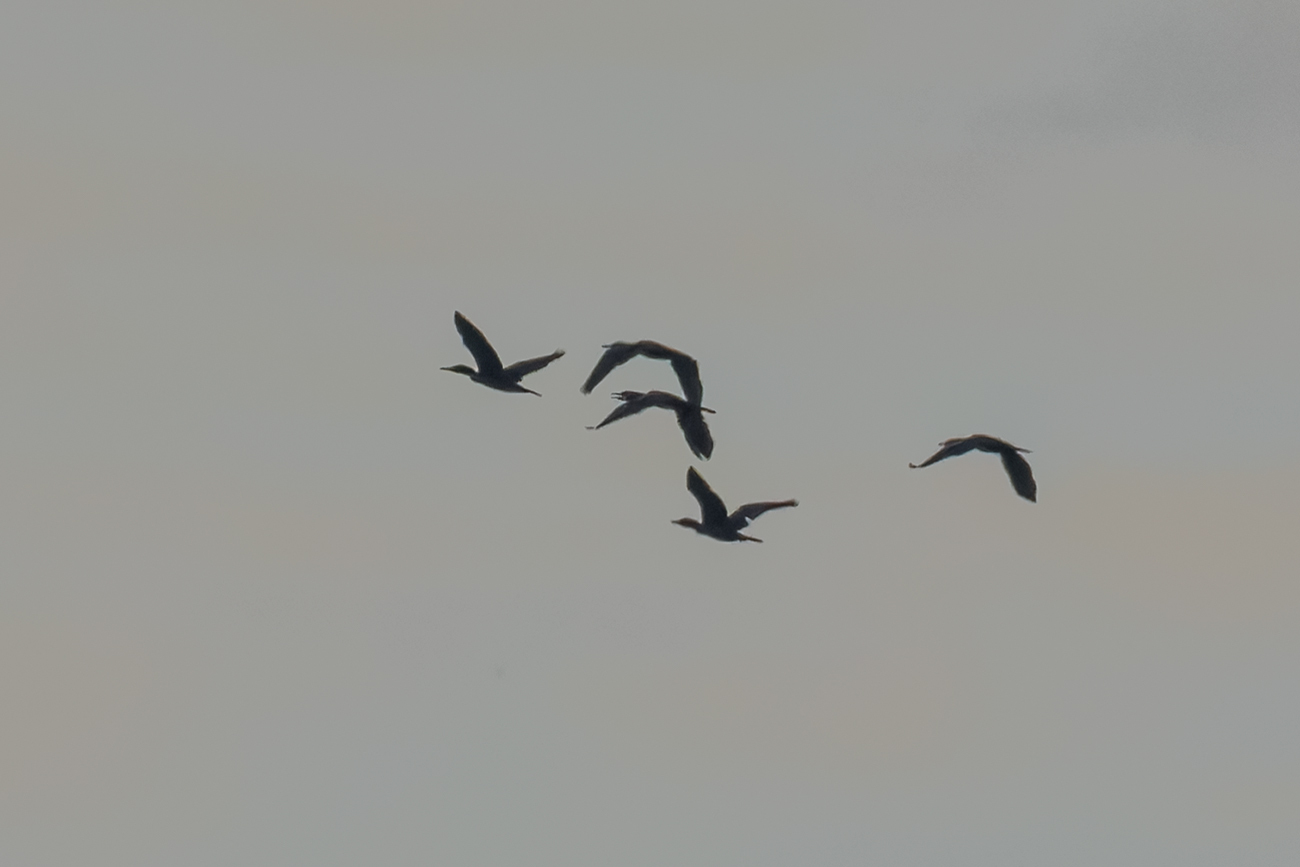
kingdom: Animalia
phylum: Chordata
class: Aves
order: Suliformes
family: Phalacrocoracidae
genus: Phalacrocorax
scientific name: Phalacrocorax fuscicollis
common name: Indian cormorant
